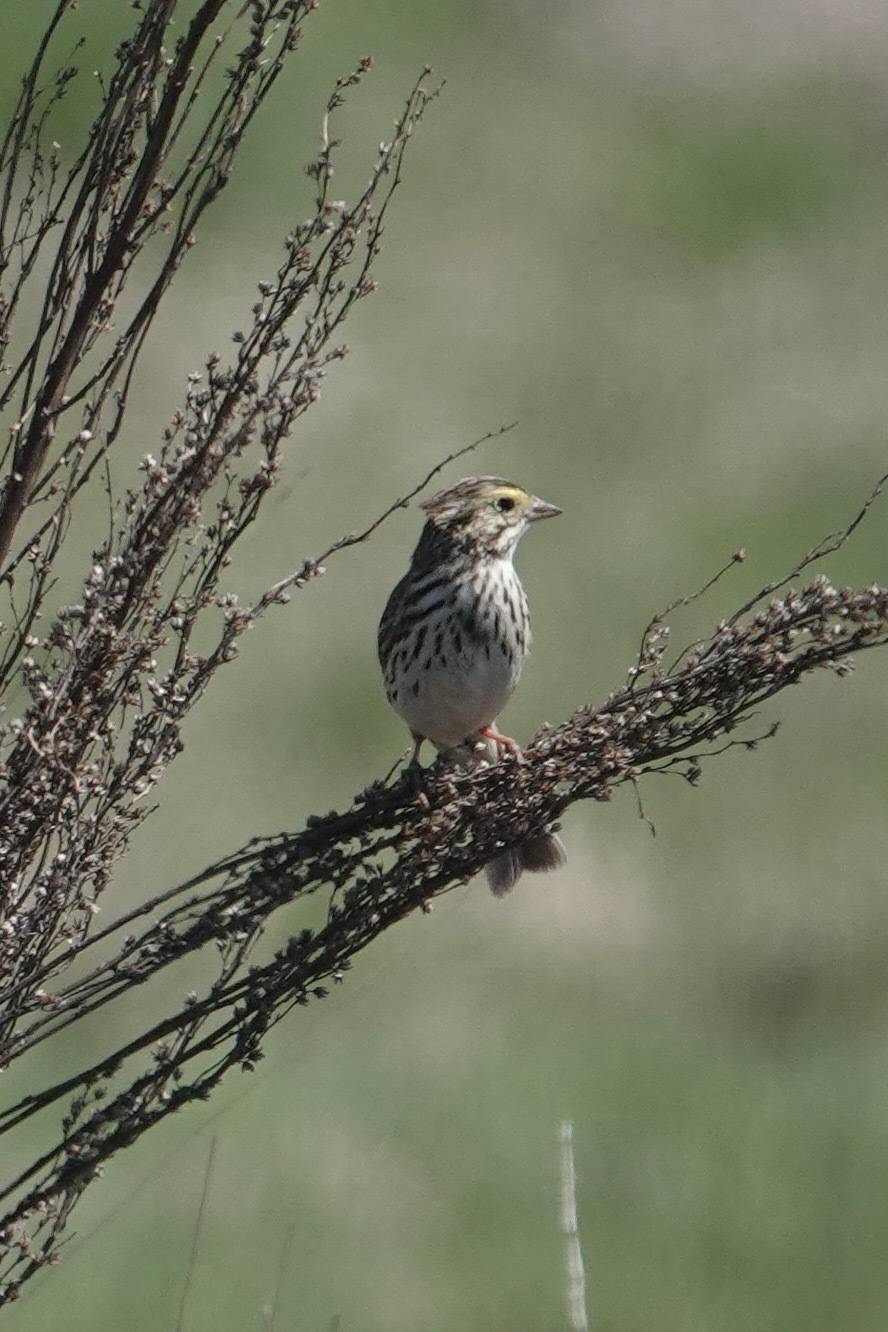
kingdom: Animalia
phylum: Chordata
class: Aves
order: Passeriformes
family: Passerellidae
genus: Passerculus
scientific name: Passerculus sandwichensis
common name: Savannah sparrow
